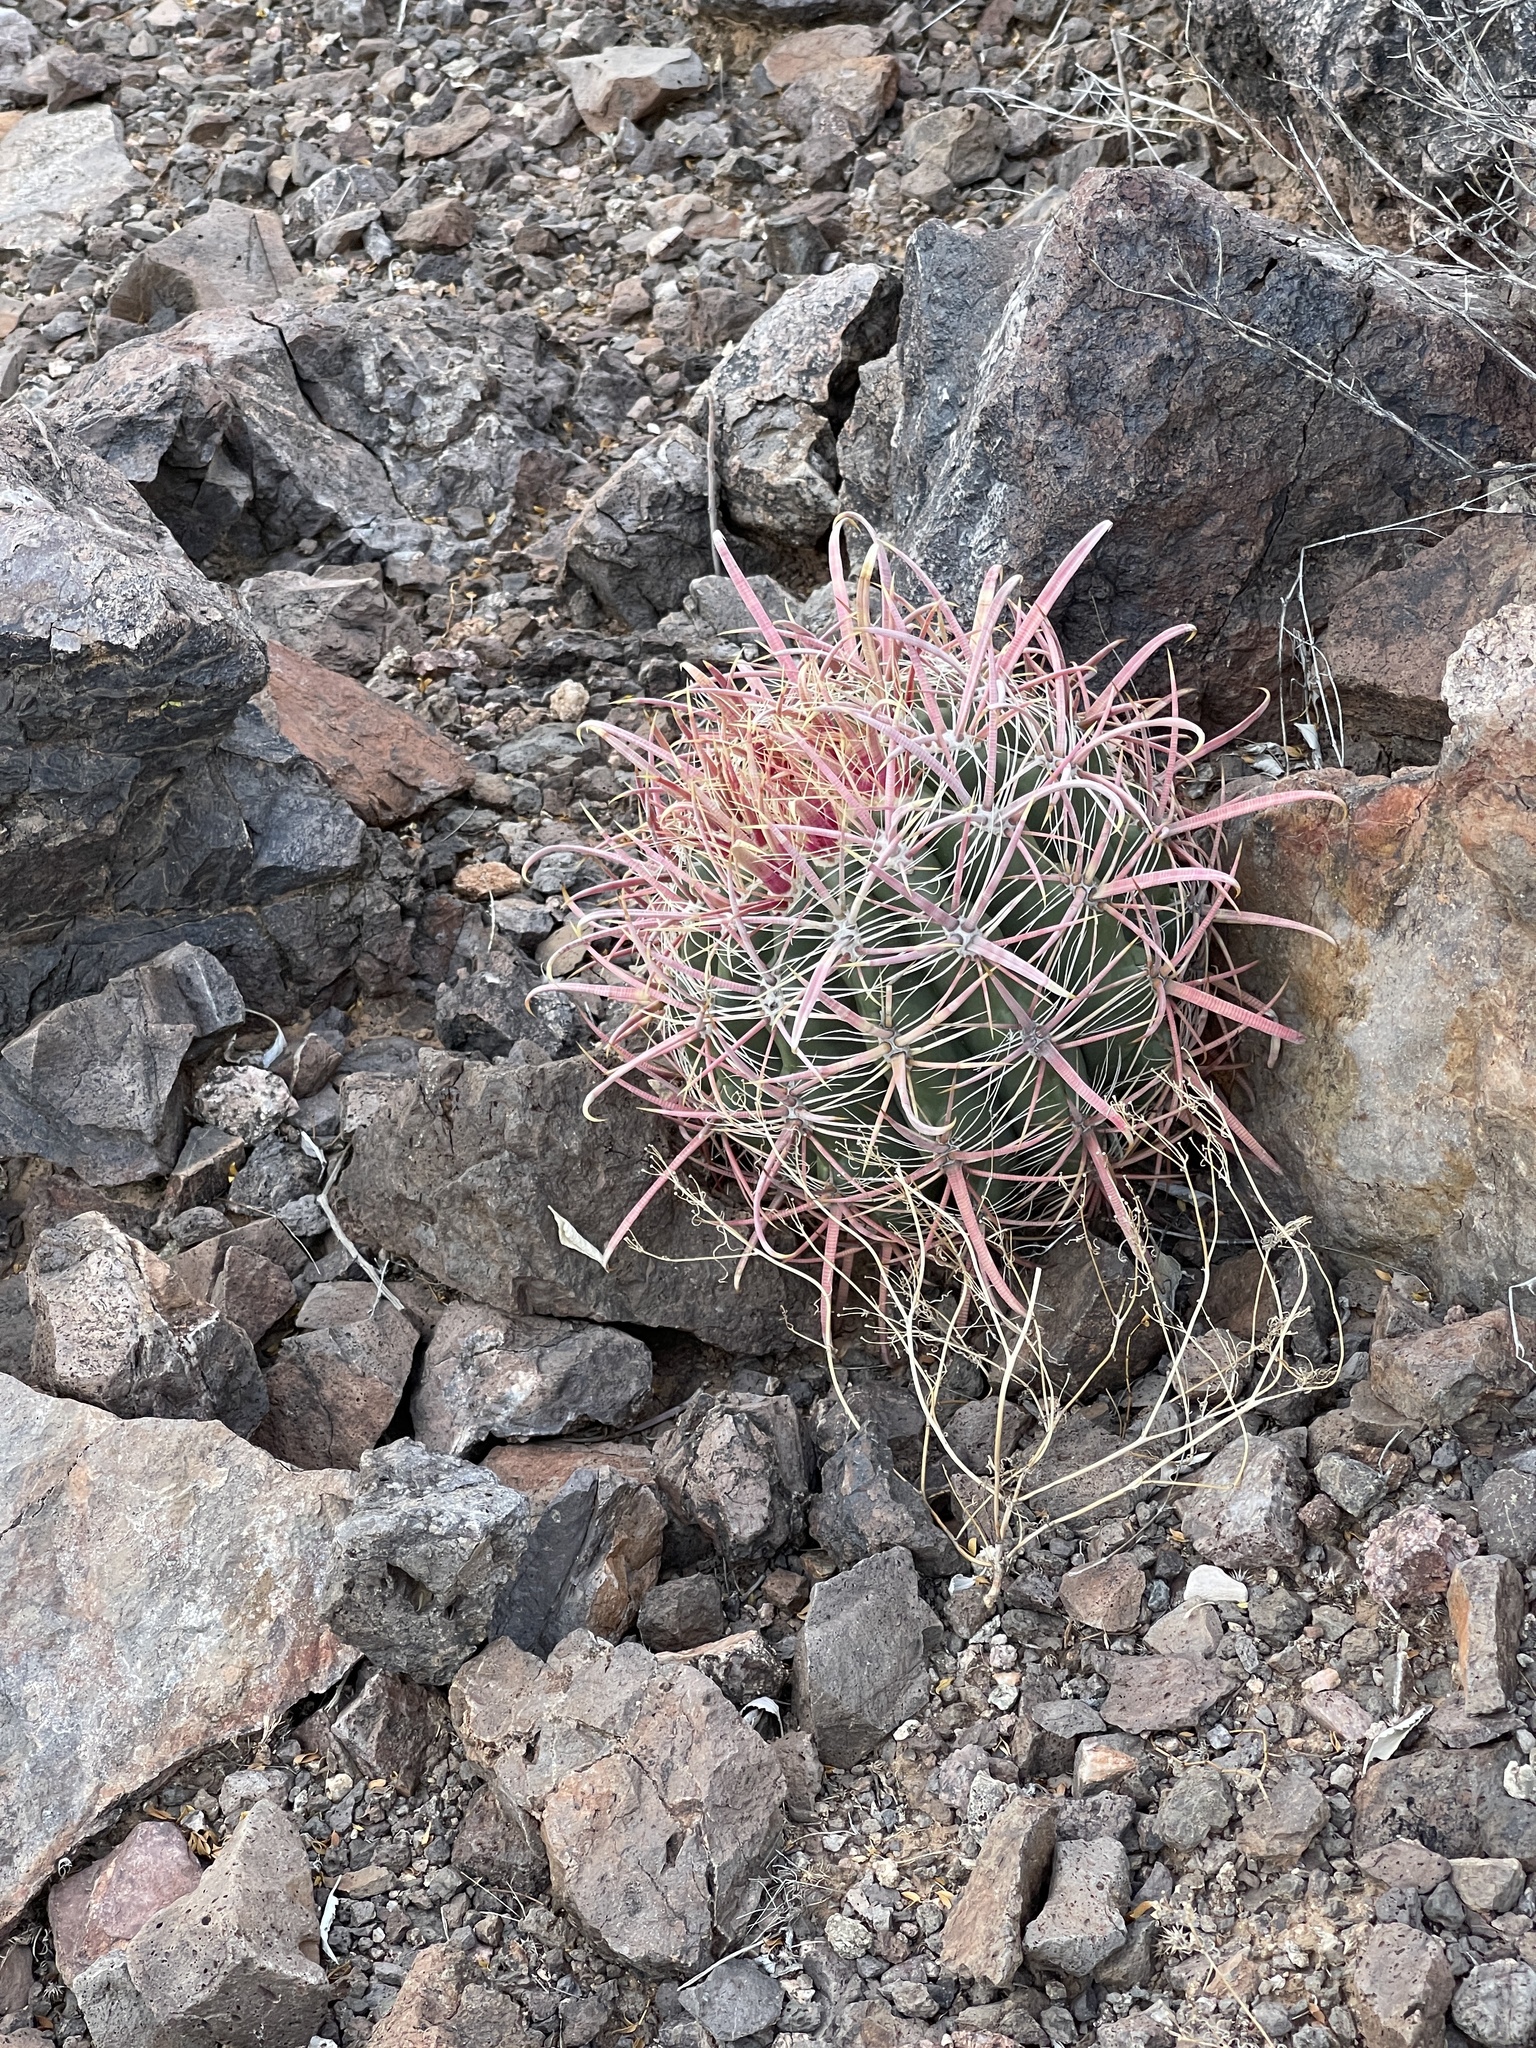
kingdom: Plantae
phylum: Tracheophyta
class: Magnoliopsida
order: Caryophyllales
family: Cactaceae
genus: Ferocactus
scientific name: Ferocactus cylindraceus
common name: California barrel cactus
